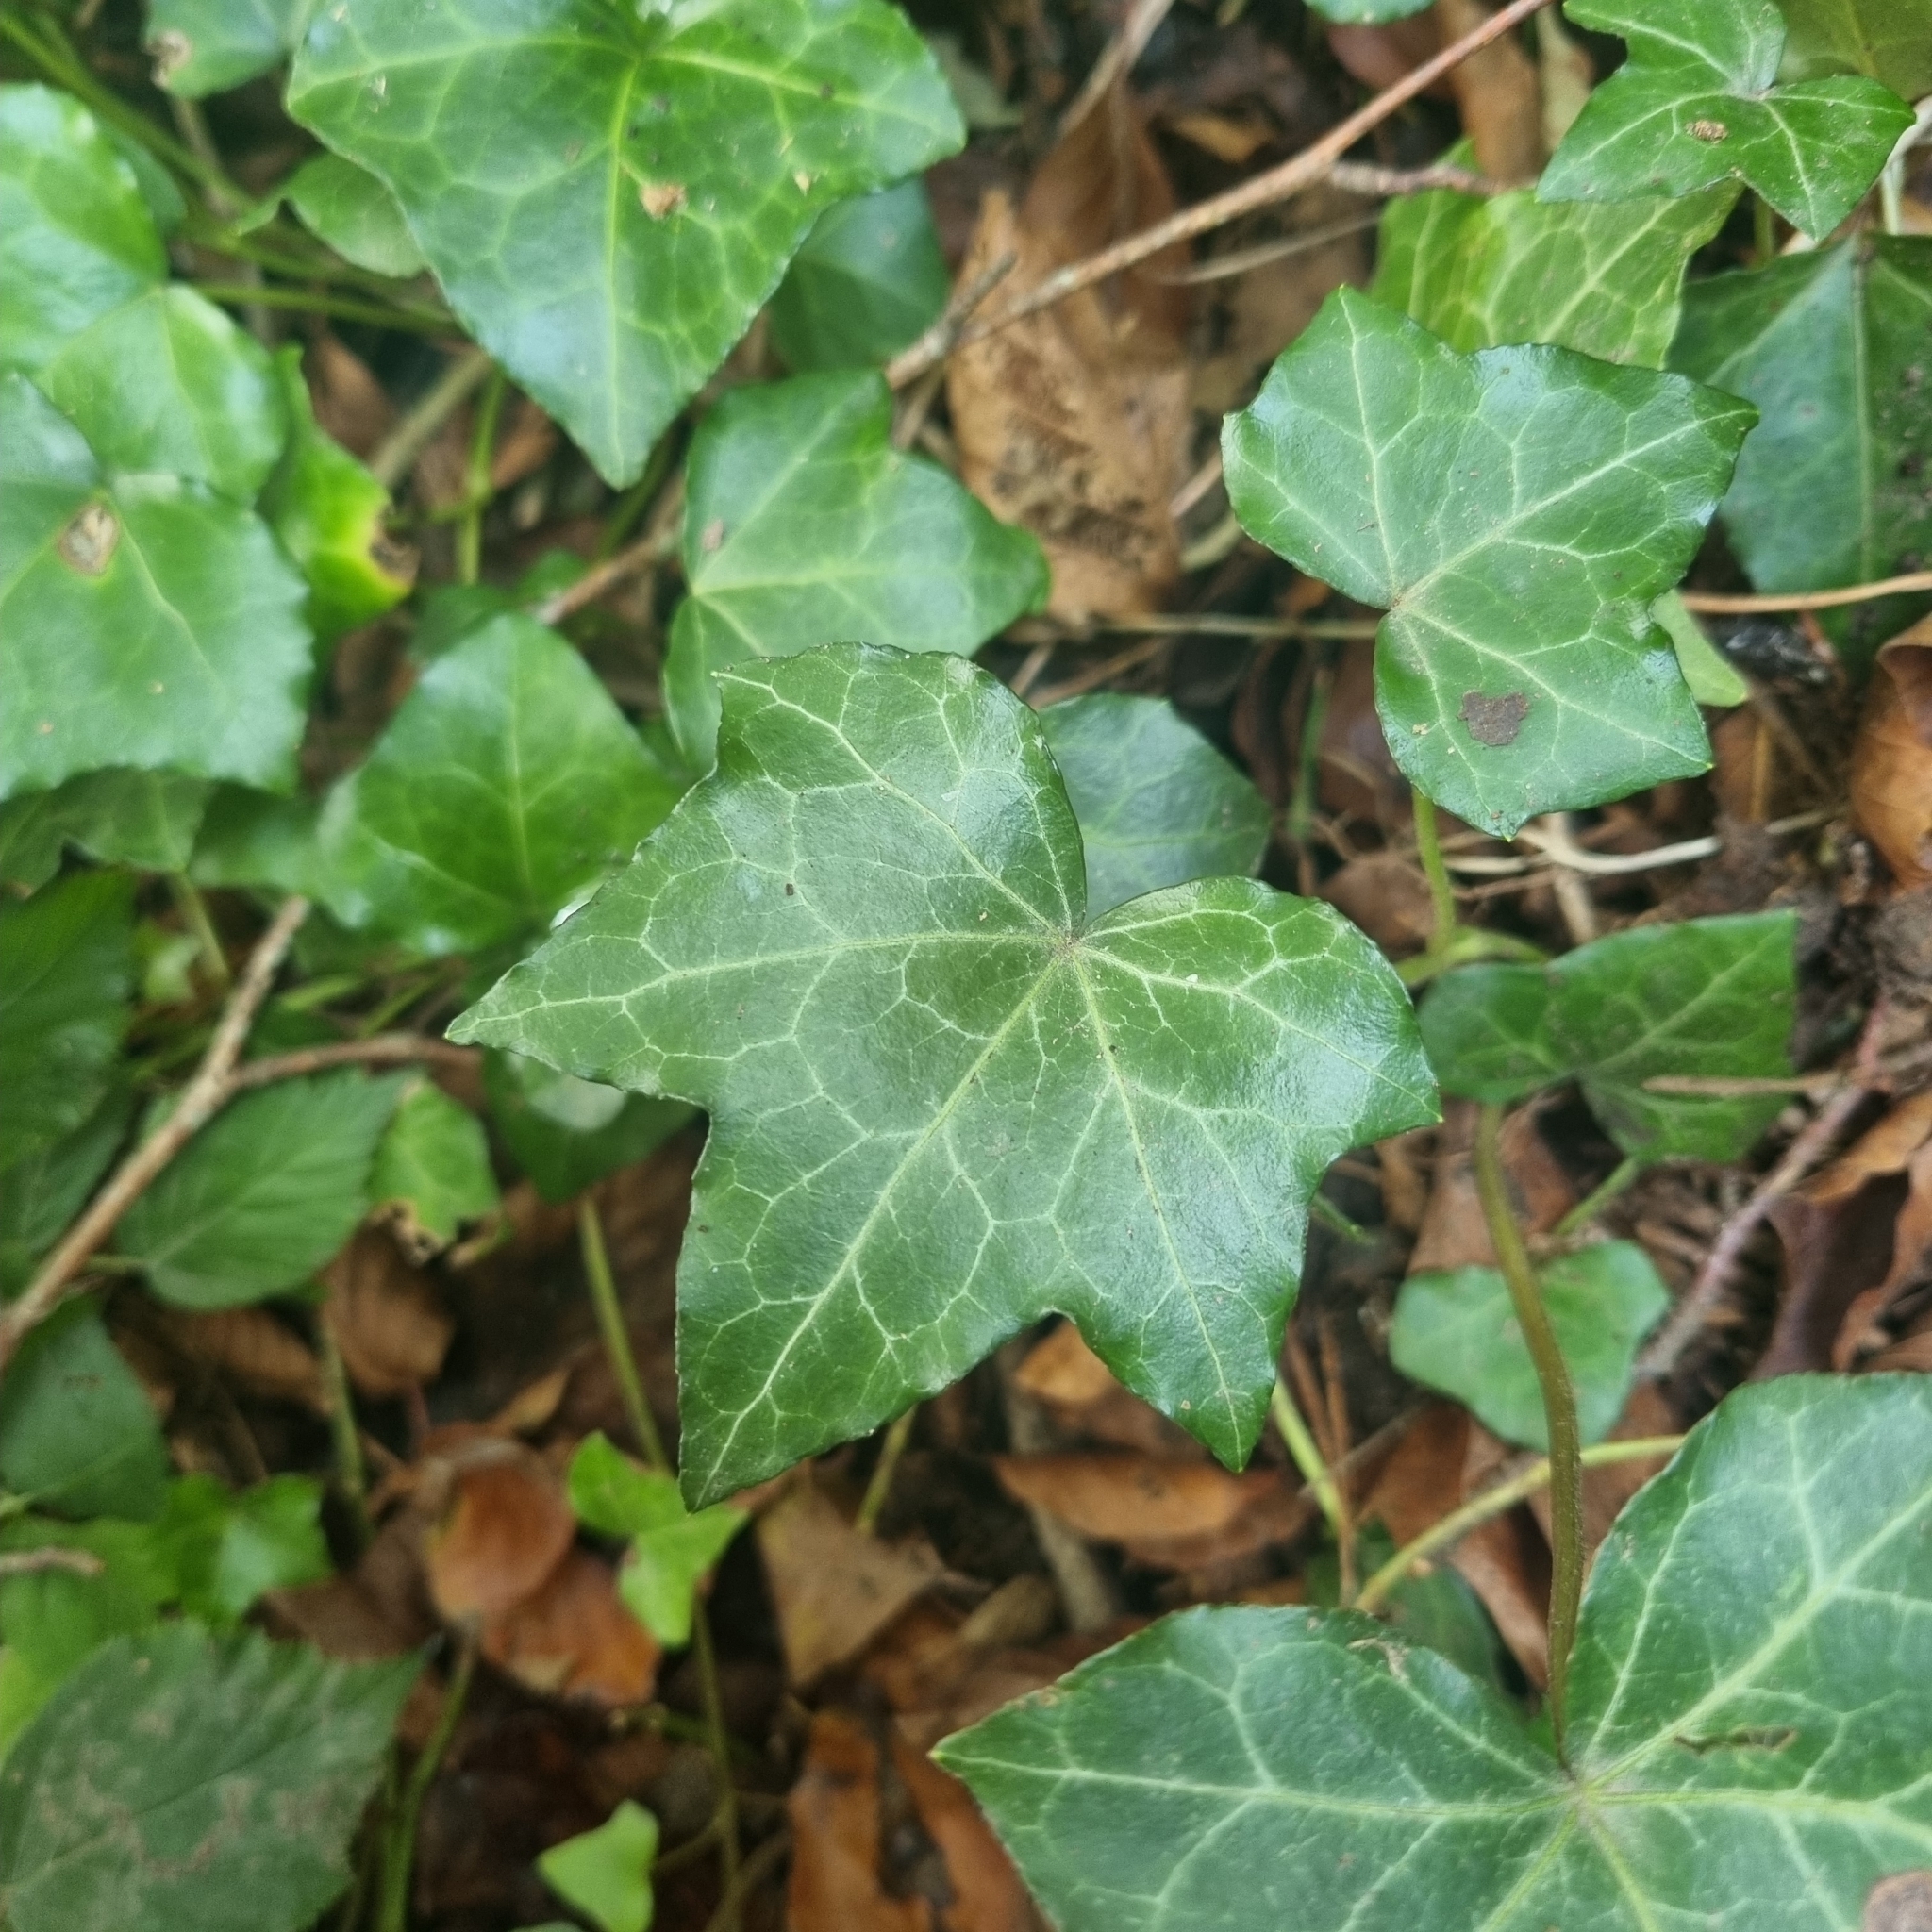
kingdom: Plantae
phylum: Tracheophyta
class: Magnoliopsida
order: Apiales
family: Araliaceae
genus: Hedera
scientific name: Hedera helix
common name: Ivy
